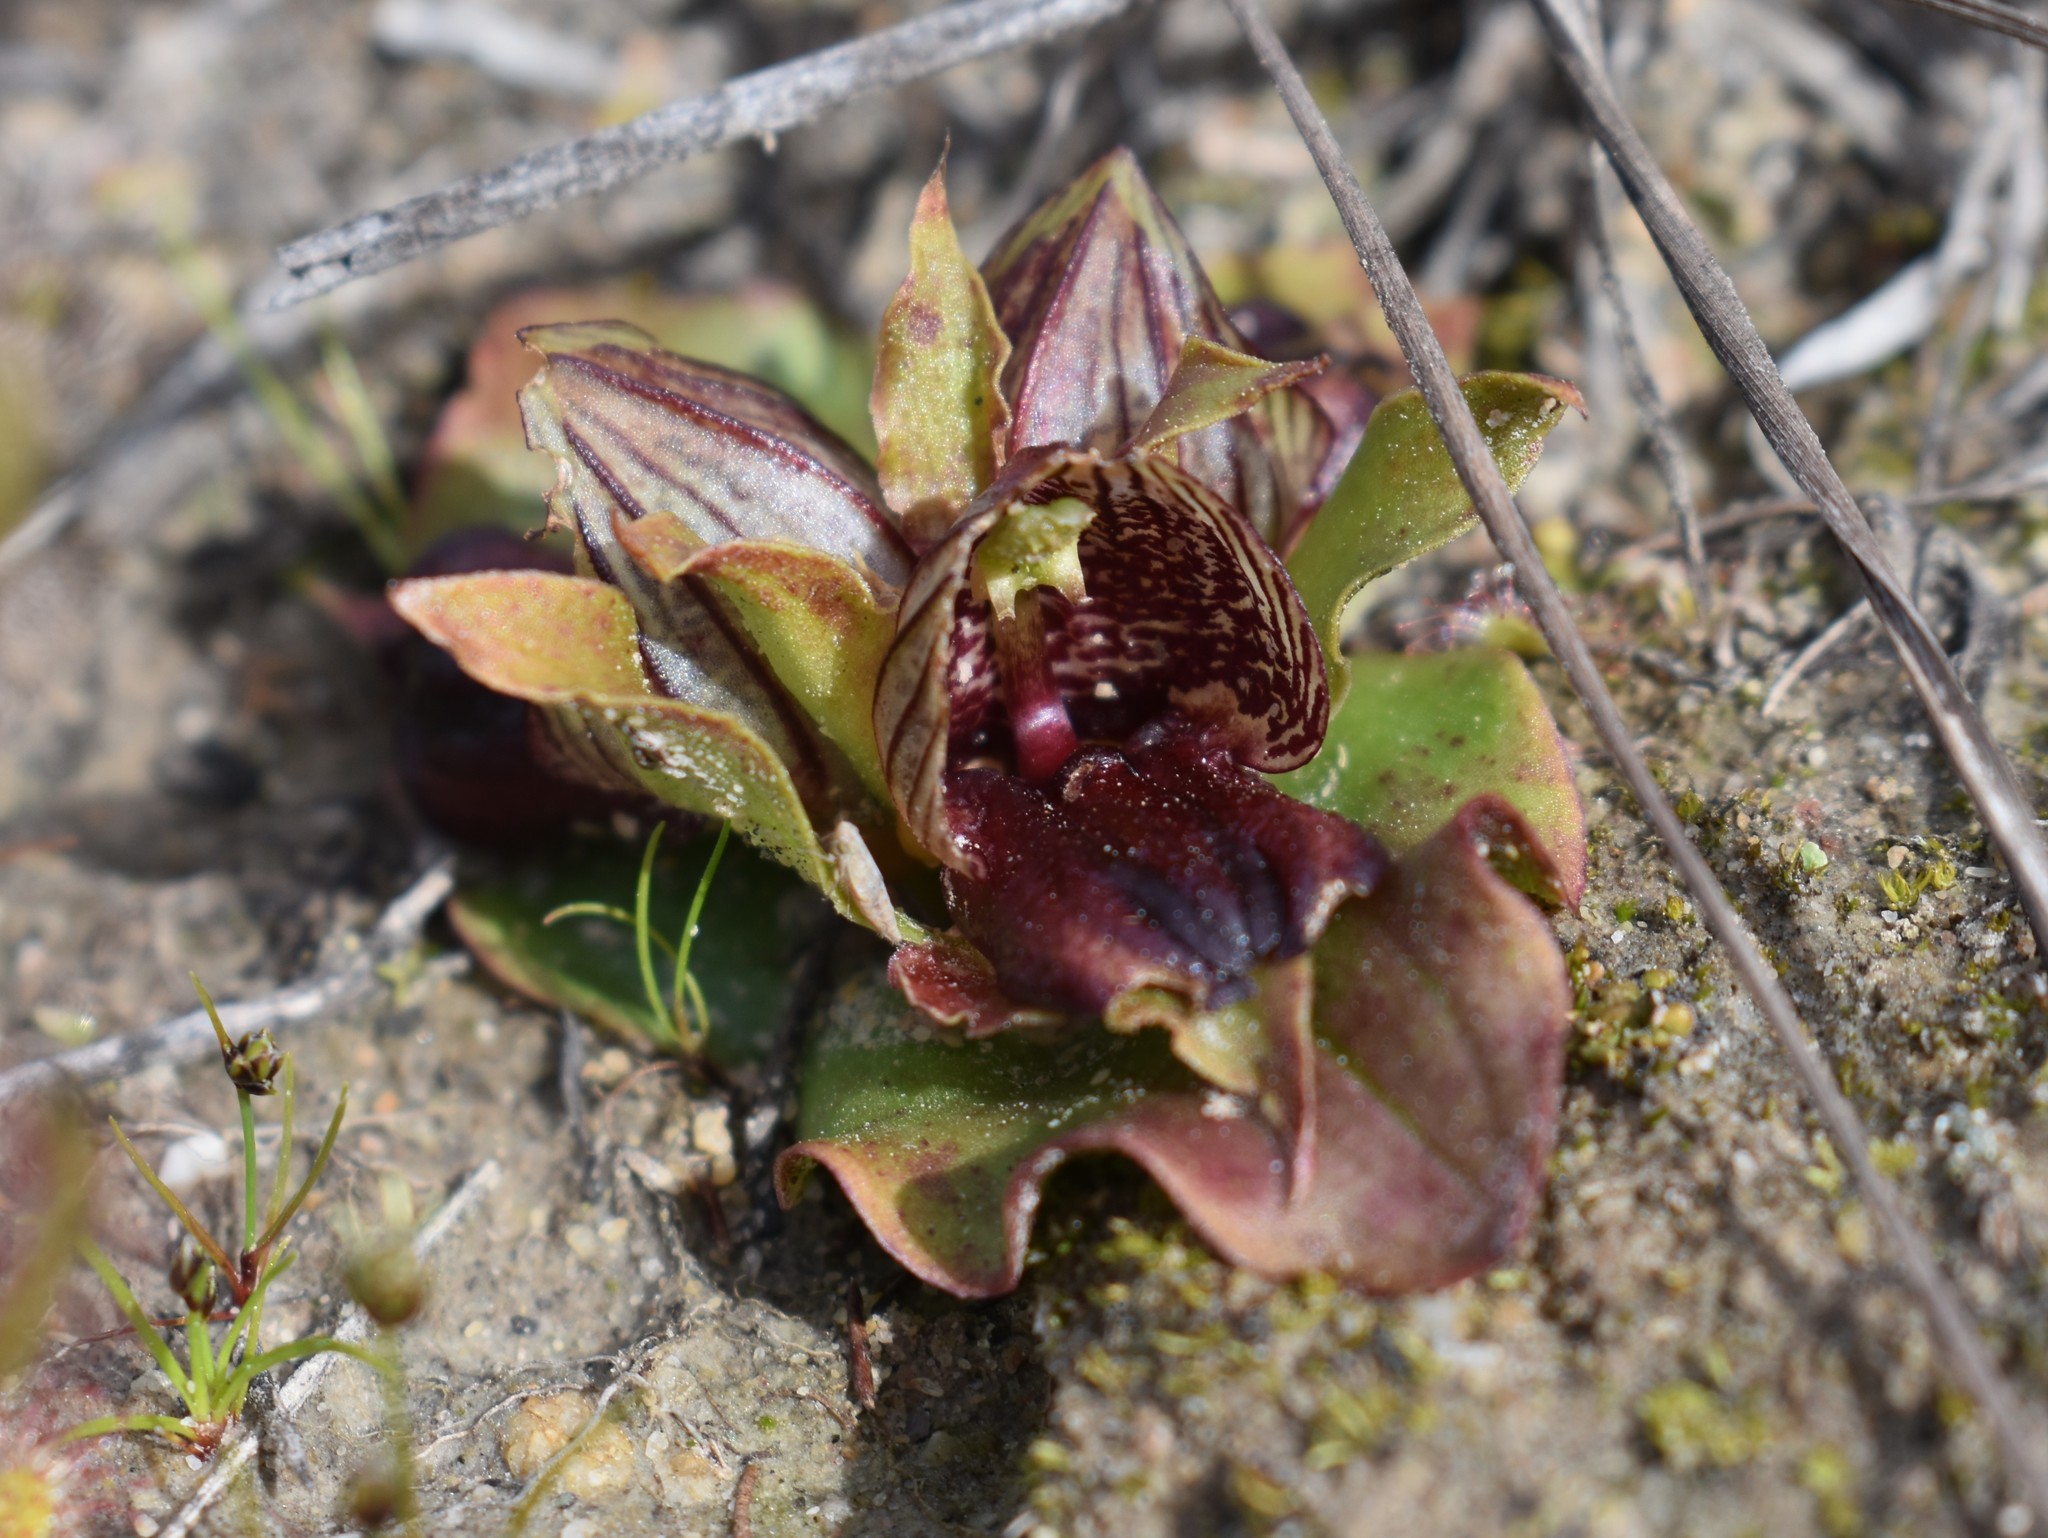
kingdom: Plantae
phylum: Tracheophyta
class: Liliopsida
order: Asparagales
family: Orchidaceae
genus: Satyrium
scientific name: Satyrium pumilum
